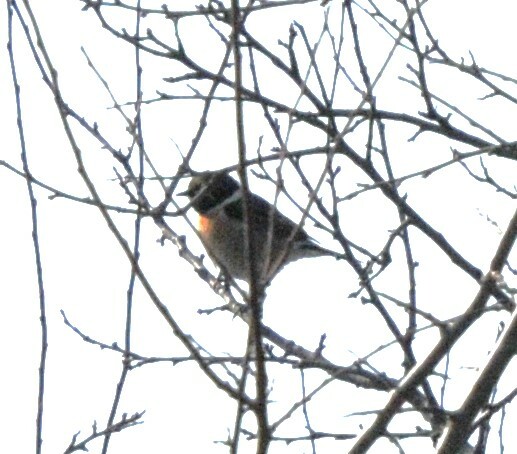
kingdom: Animalia
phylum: Chordata
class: Aves
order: Passeriformes
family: Muscicapidae
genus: Saxicola
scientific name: Saxicola rubicola
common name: European stonechat
